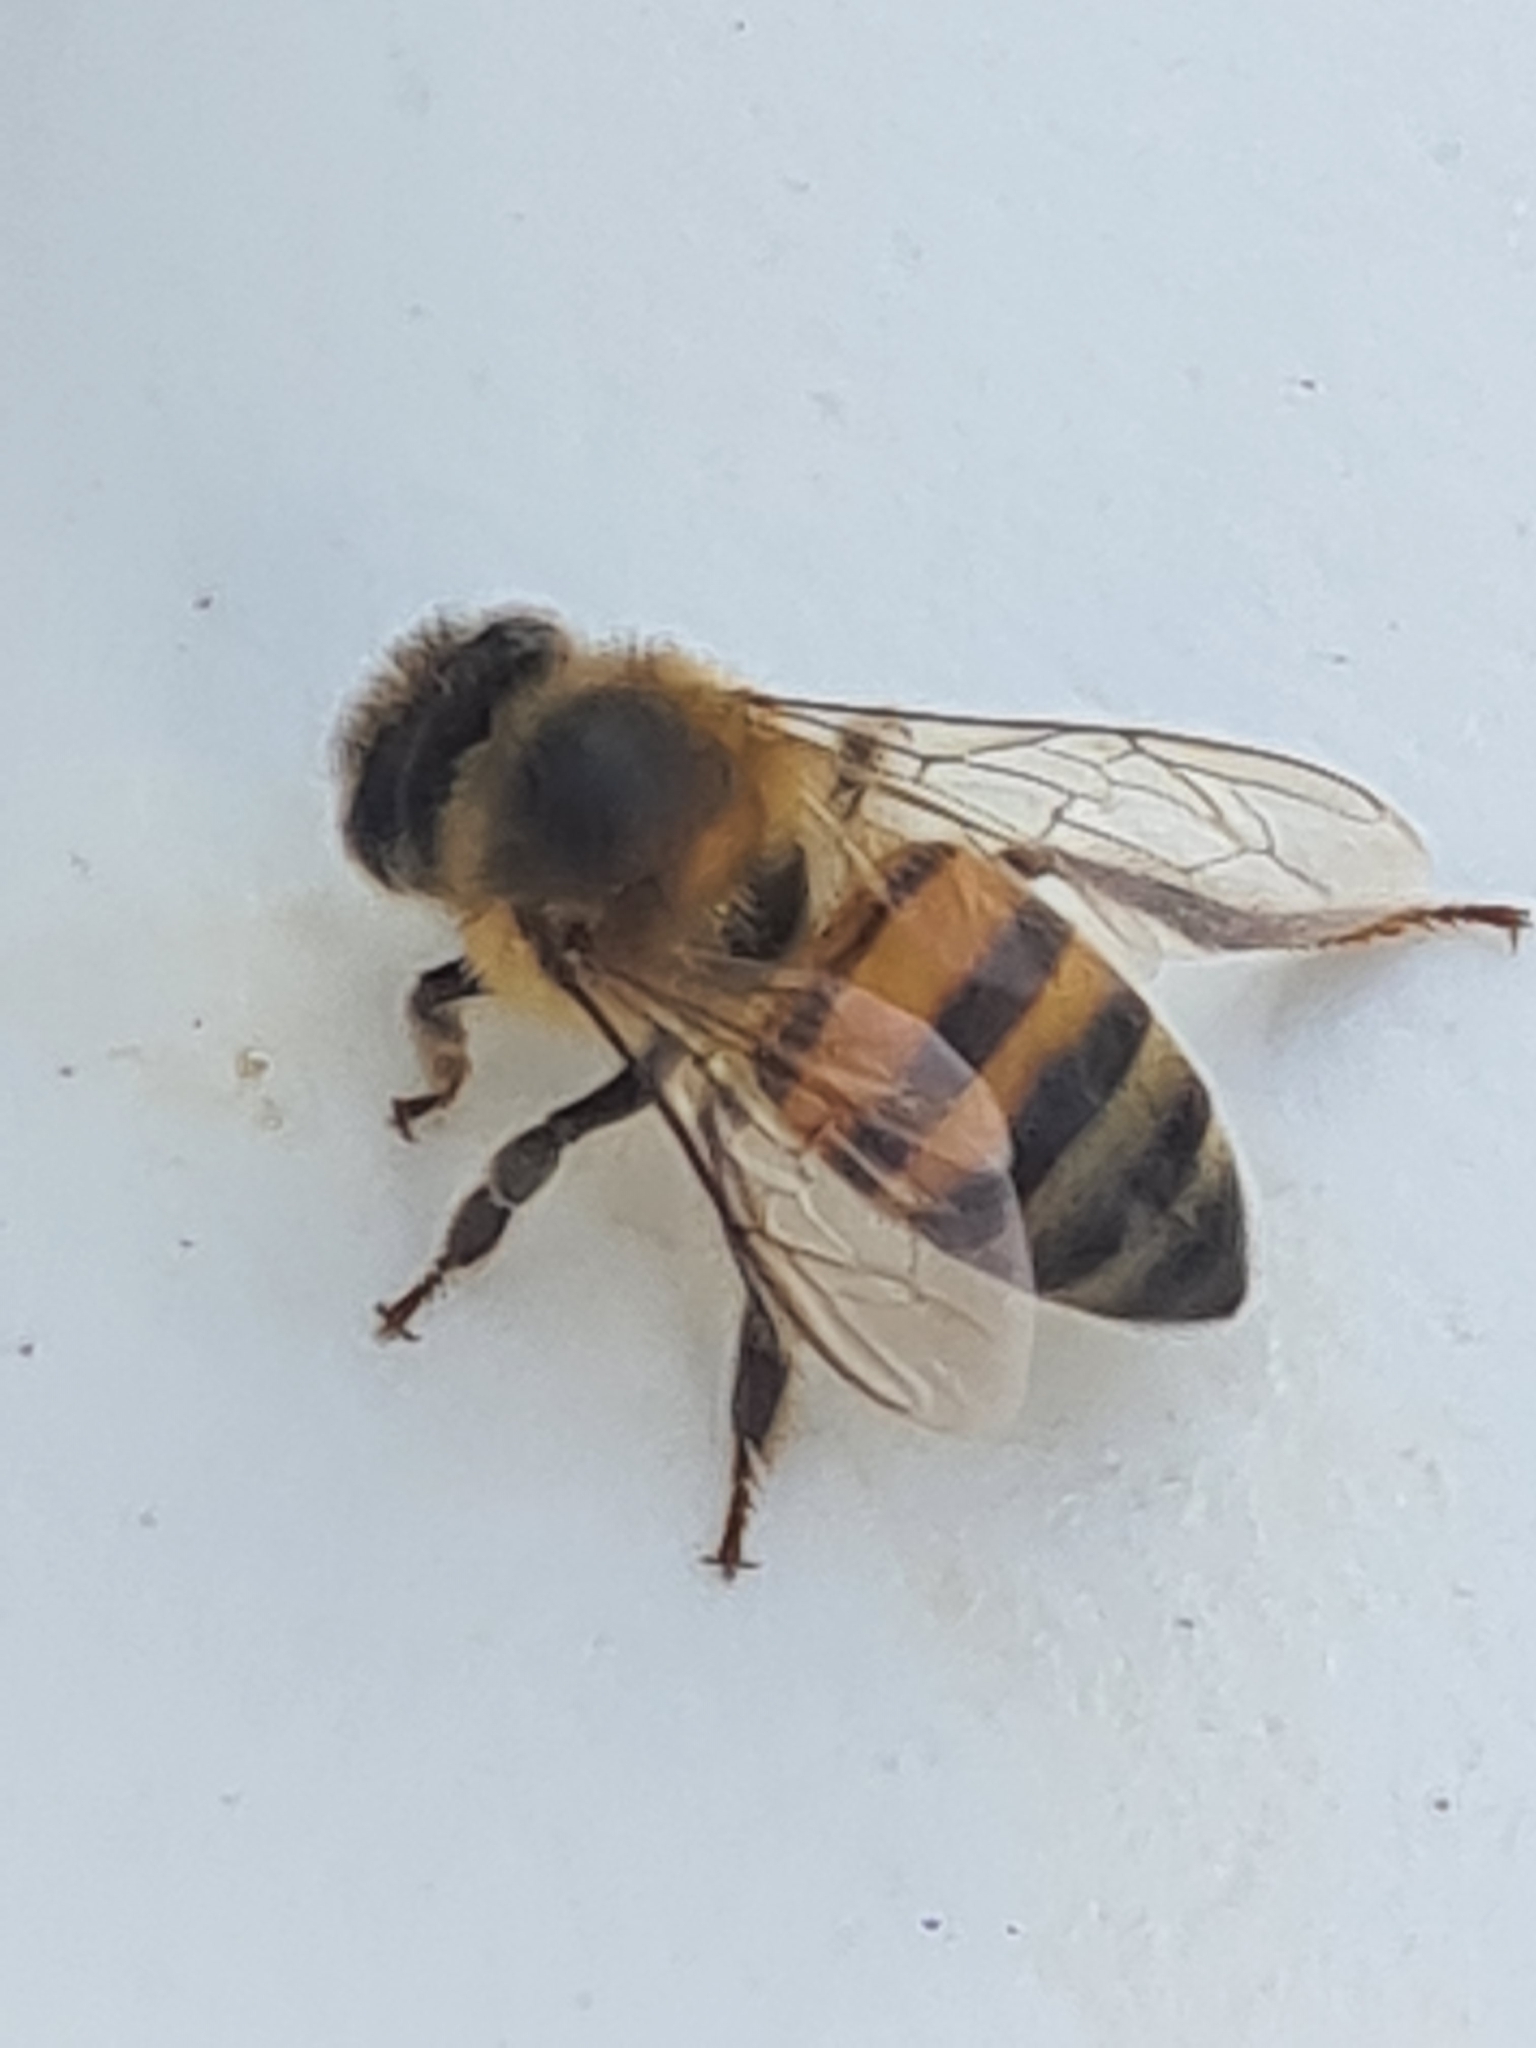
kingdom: Animalia
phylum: Arthropoda
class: Insecta
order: Hymenoptera
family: Apidae
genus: Apis
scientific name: Apis mellifera
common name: Honey bee
